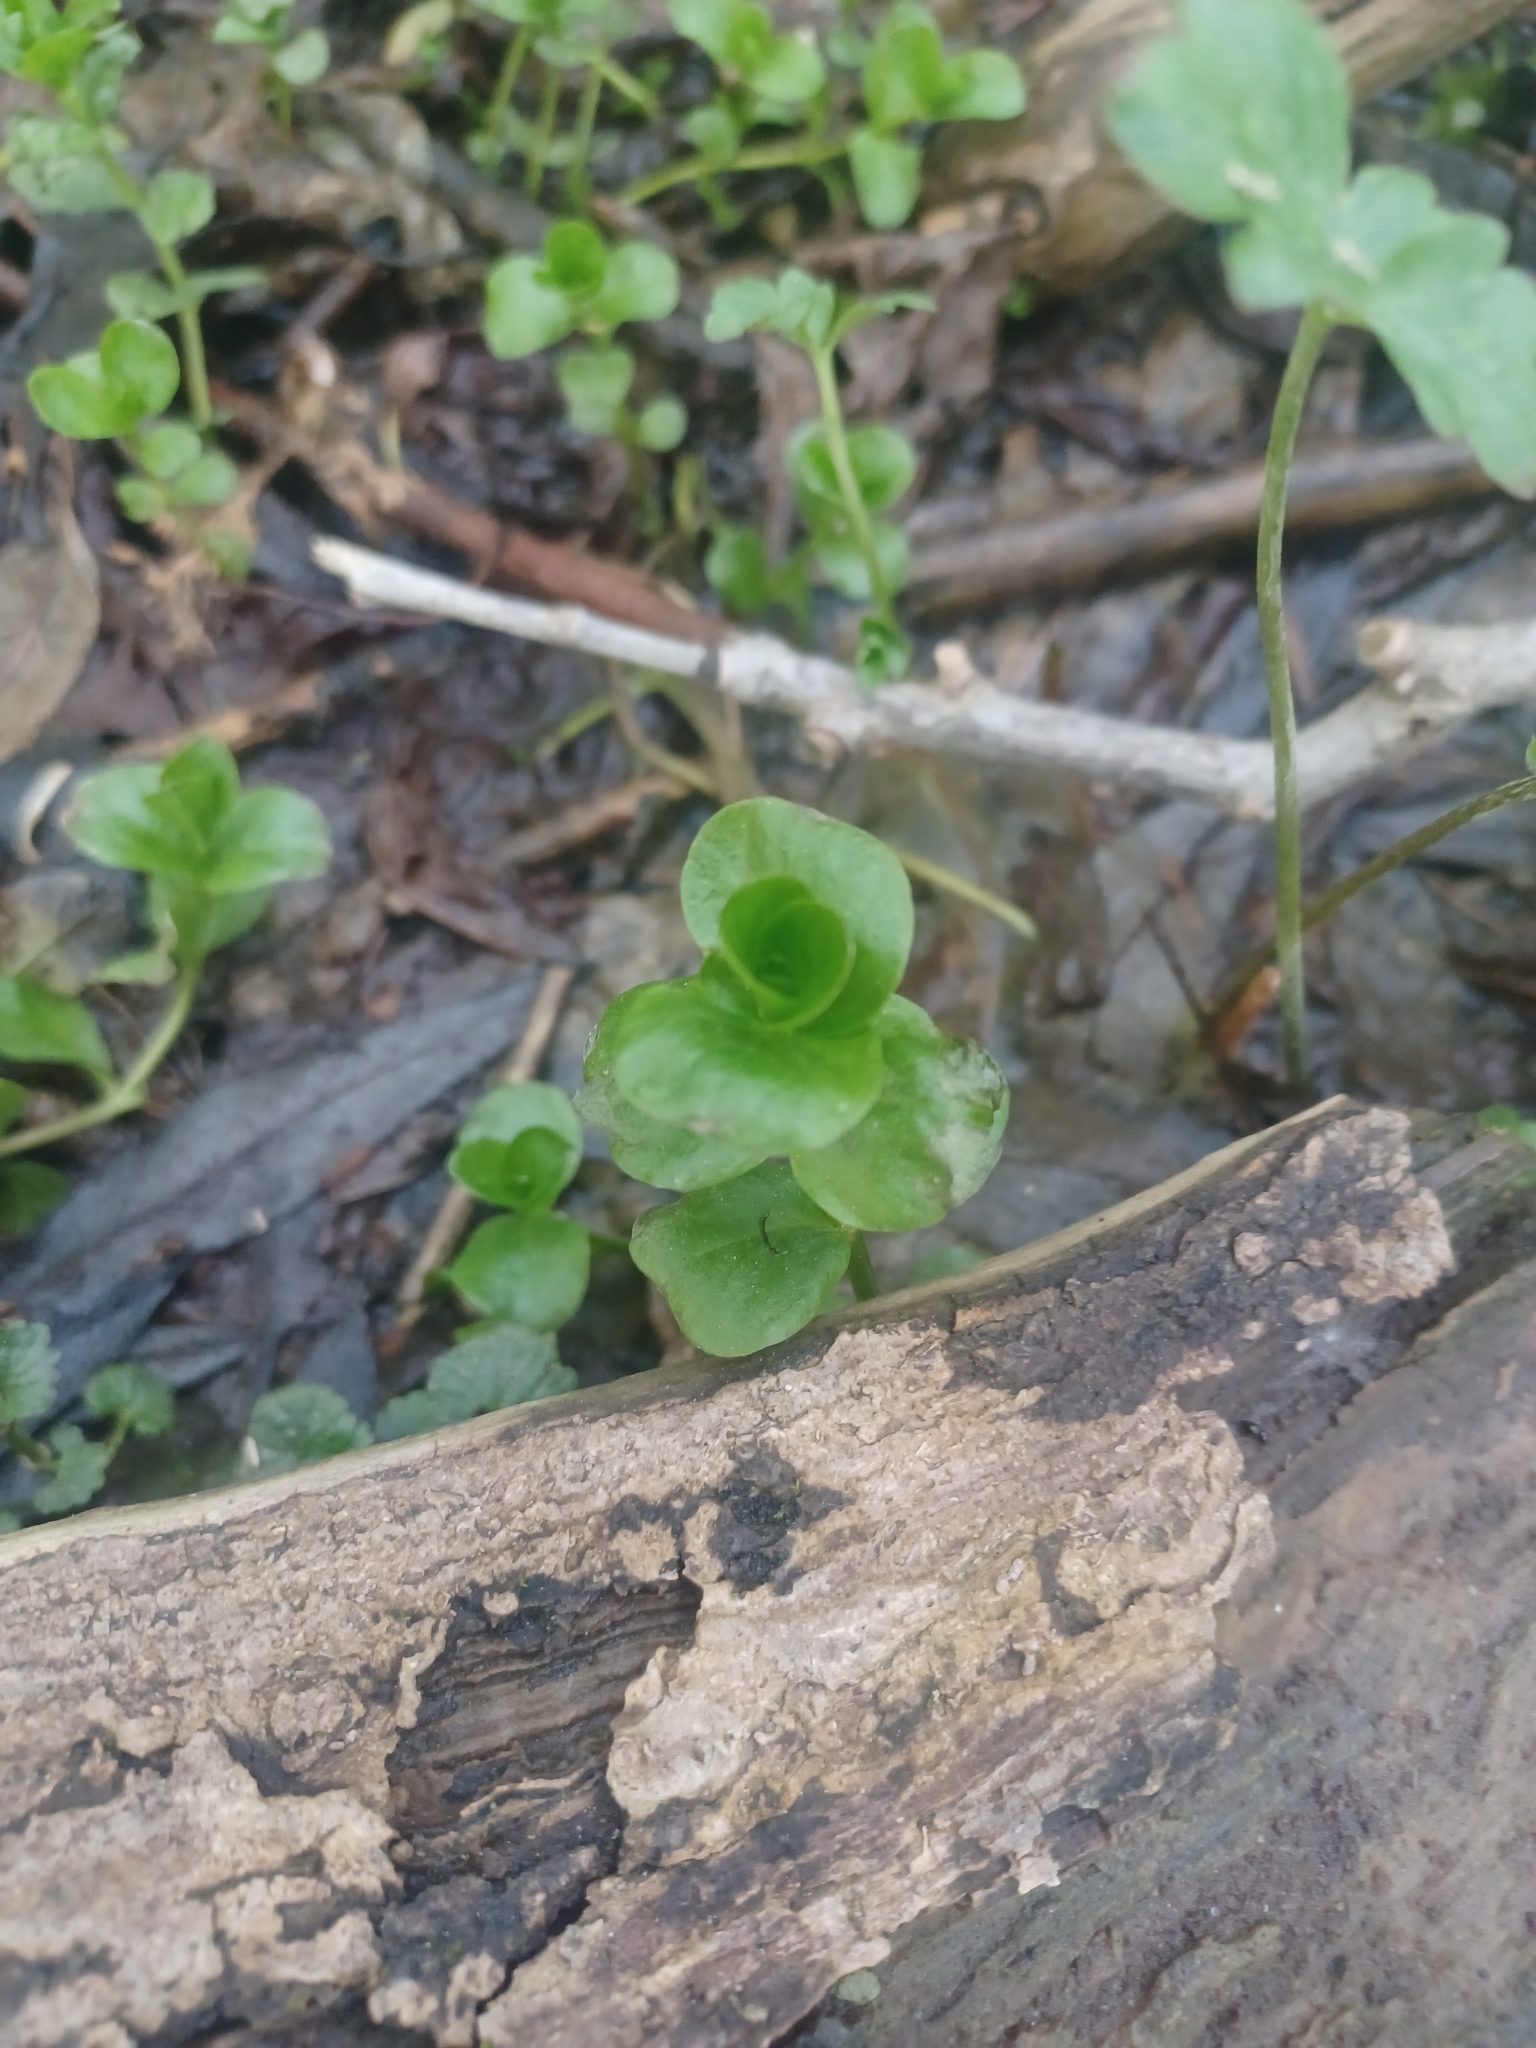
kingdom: Plantae
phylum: Tracheophyta
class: Magnoliopsida
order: Ericales
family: Primulaceae
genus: Lysimachia
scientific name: Lysimachia nummularia
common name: Moneywort
